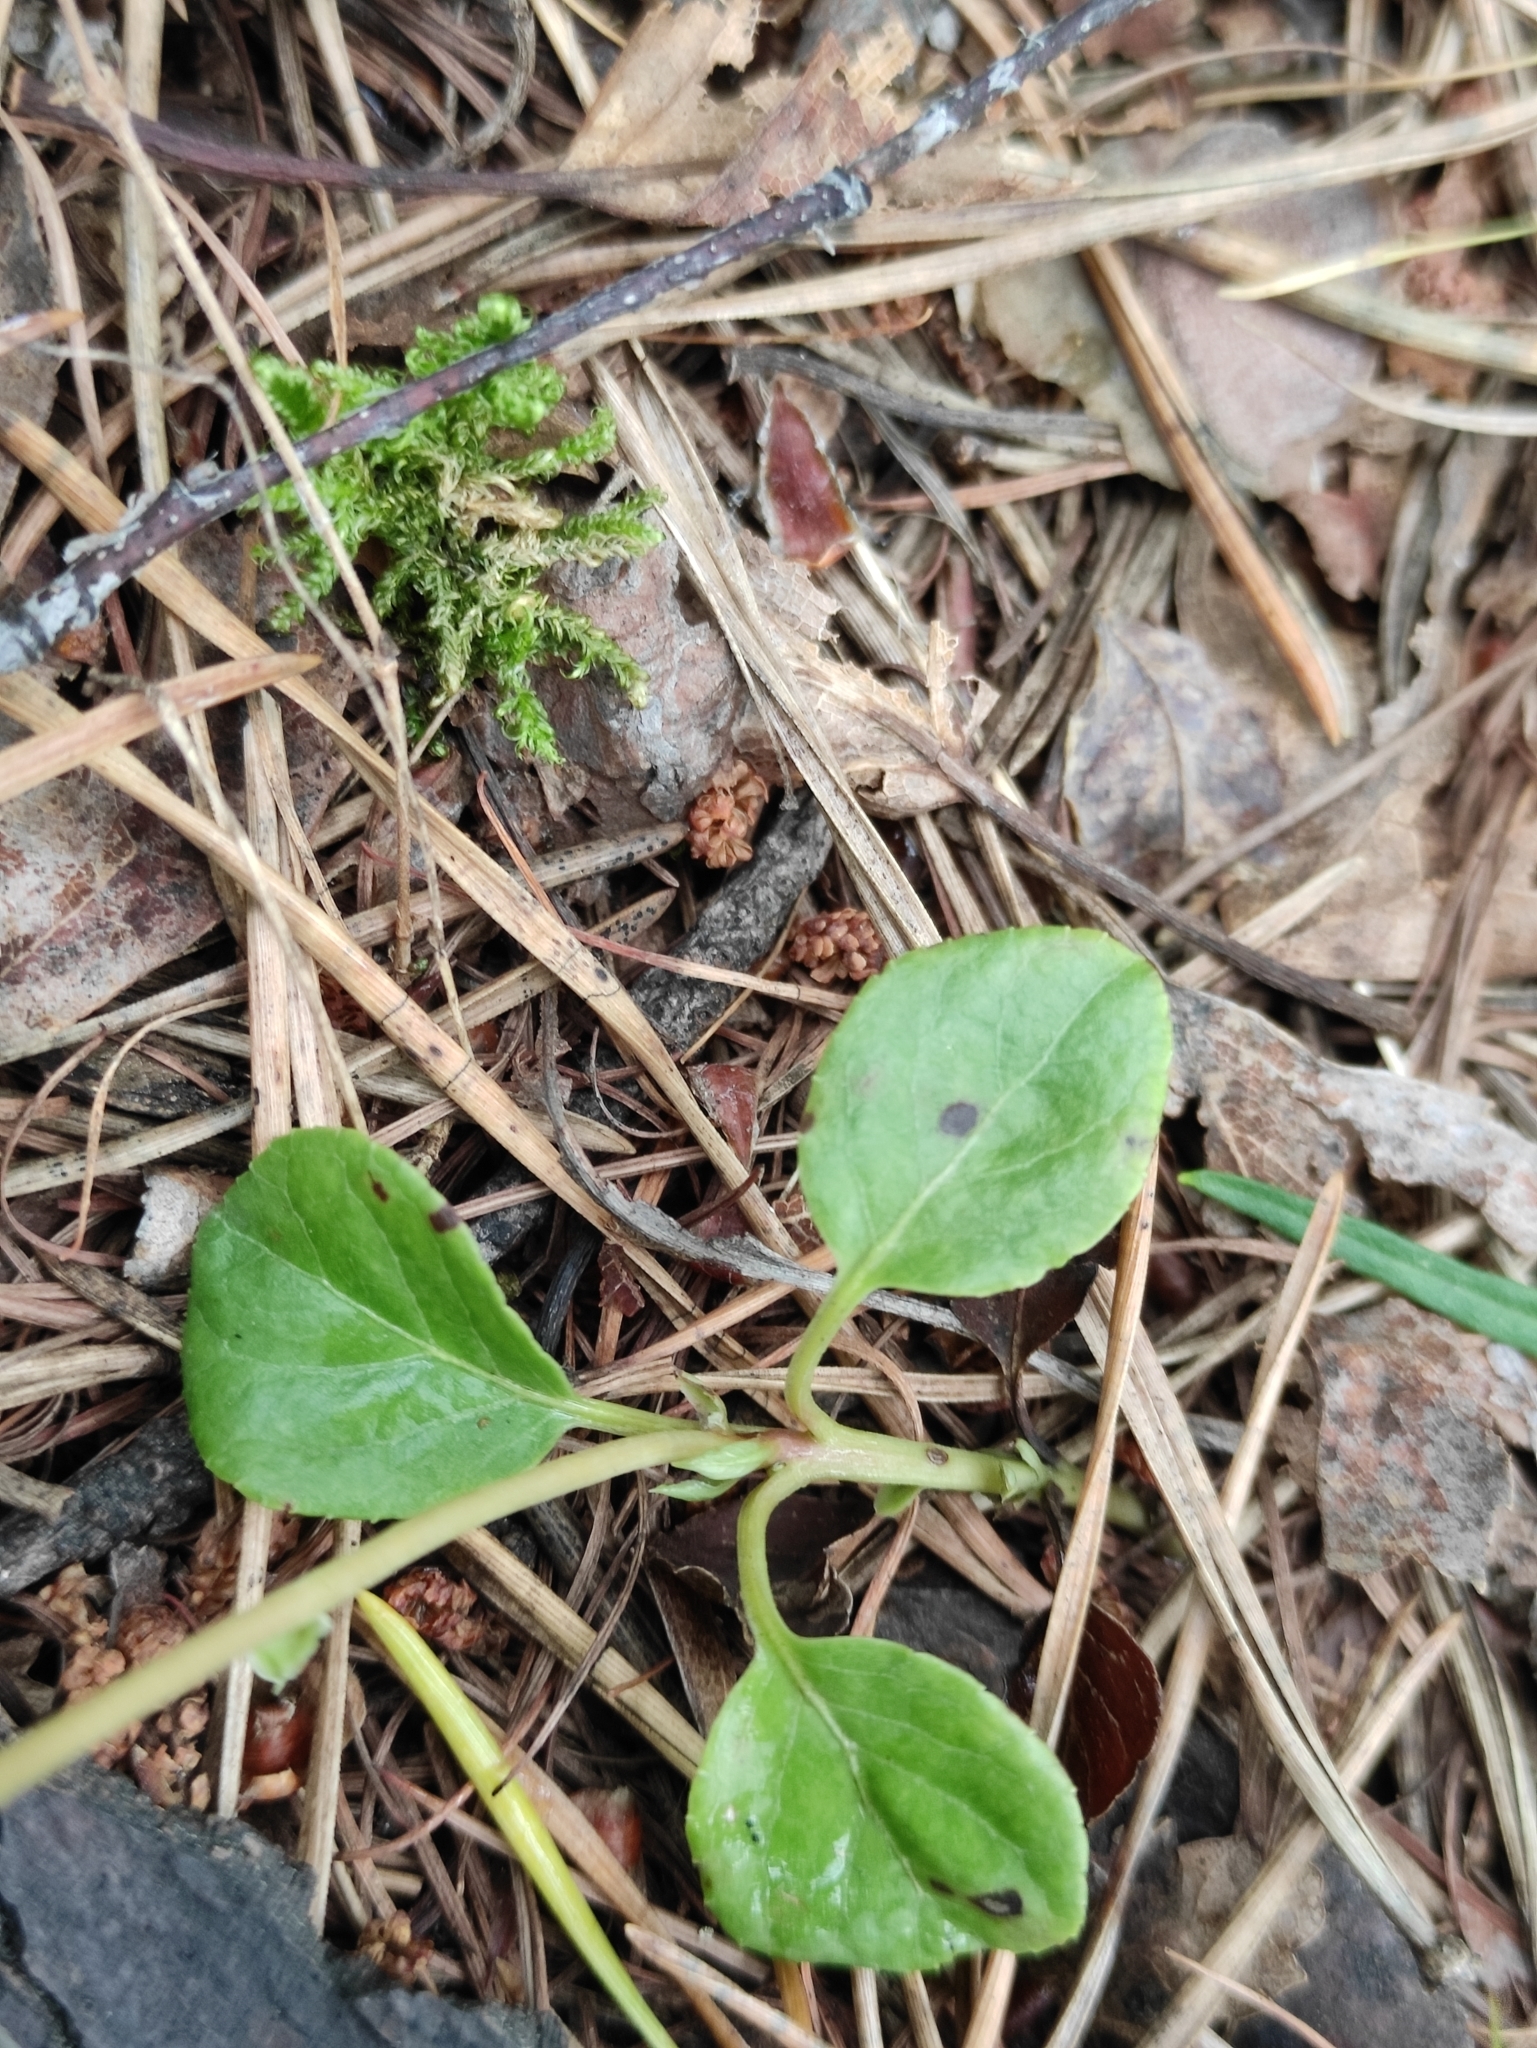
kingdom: Plantae
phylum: Tracheophyta
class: Magnoliopsida
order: Ericales
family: Ericaceae
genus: Orthilia
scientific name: Orthilia secunda
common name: One-sided orthilia
